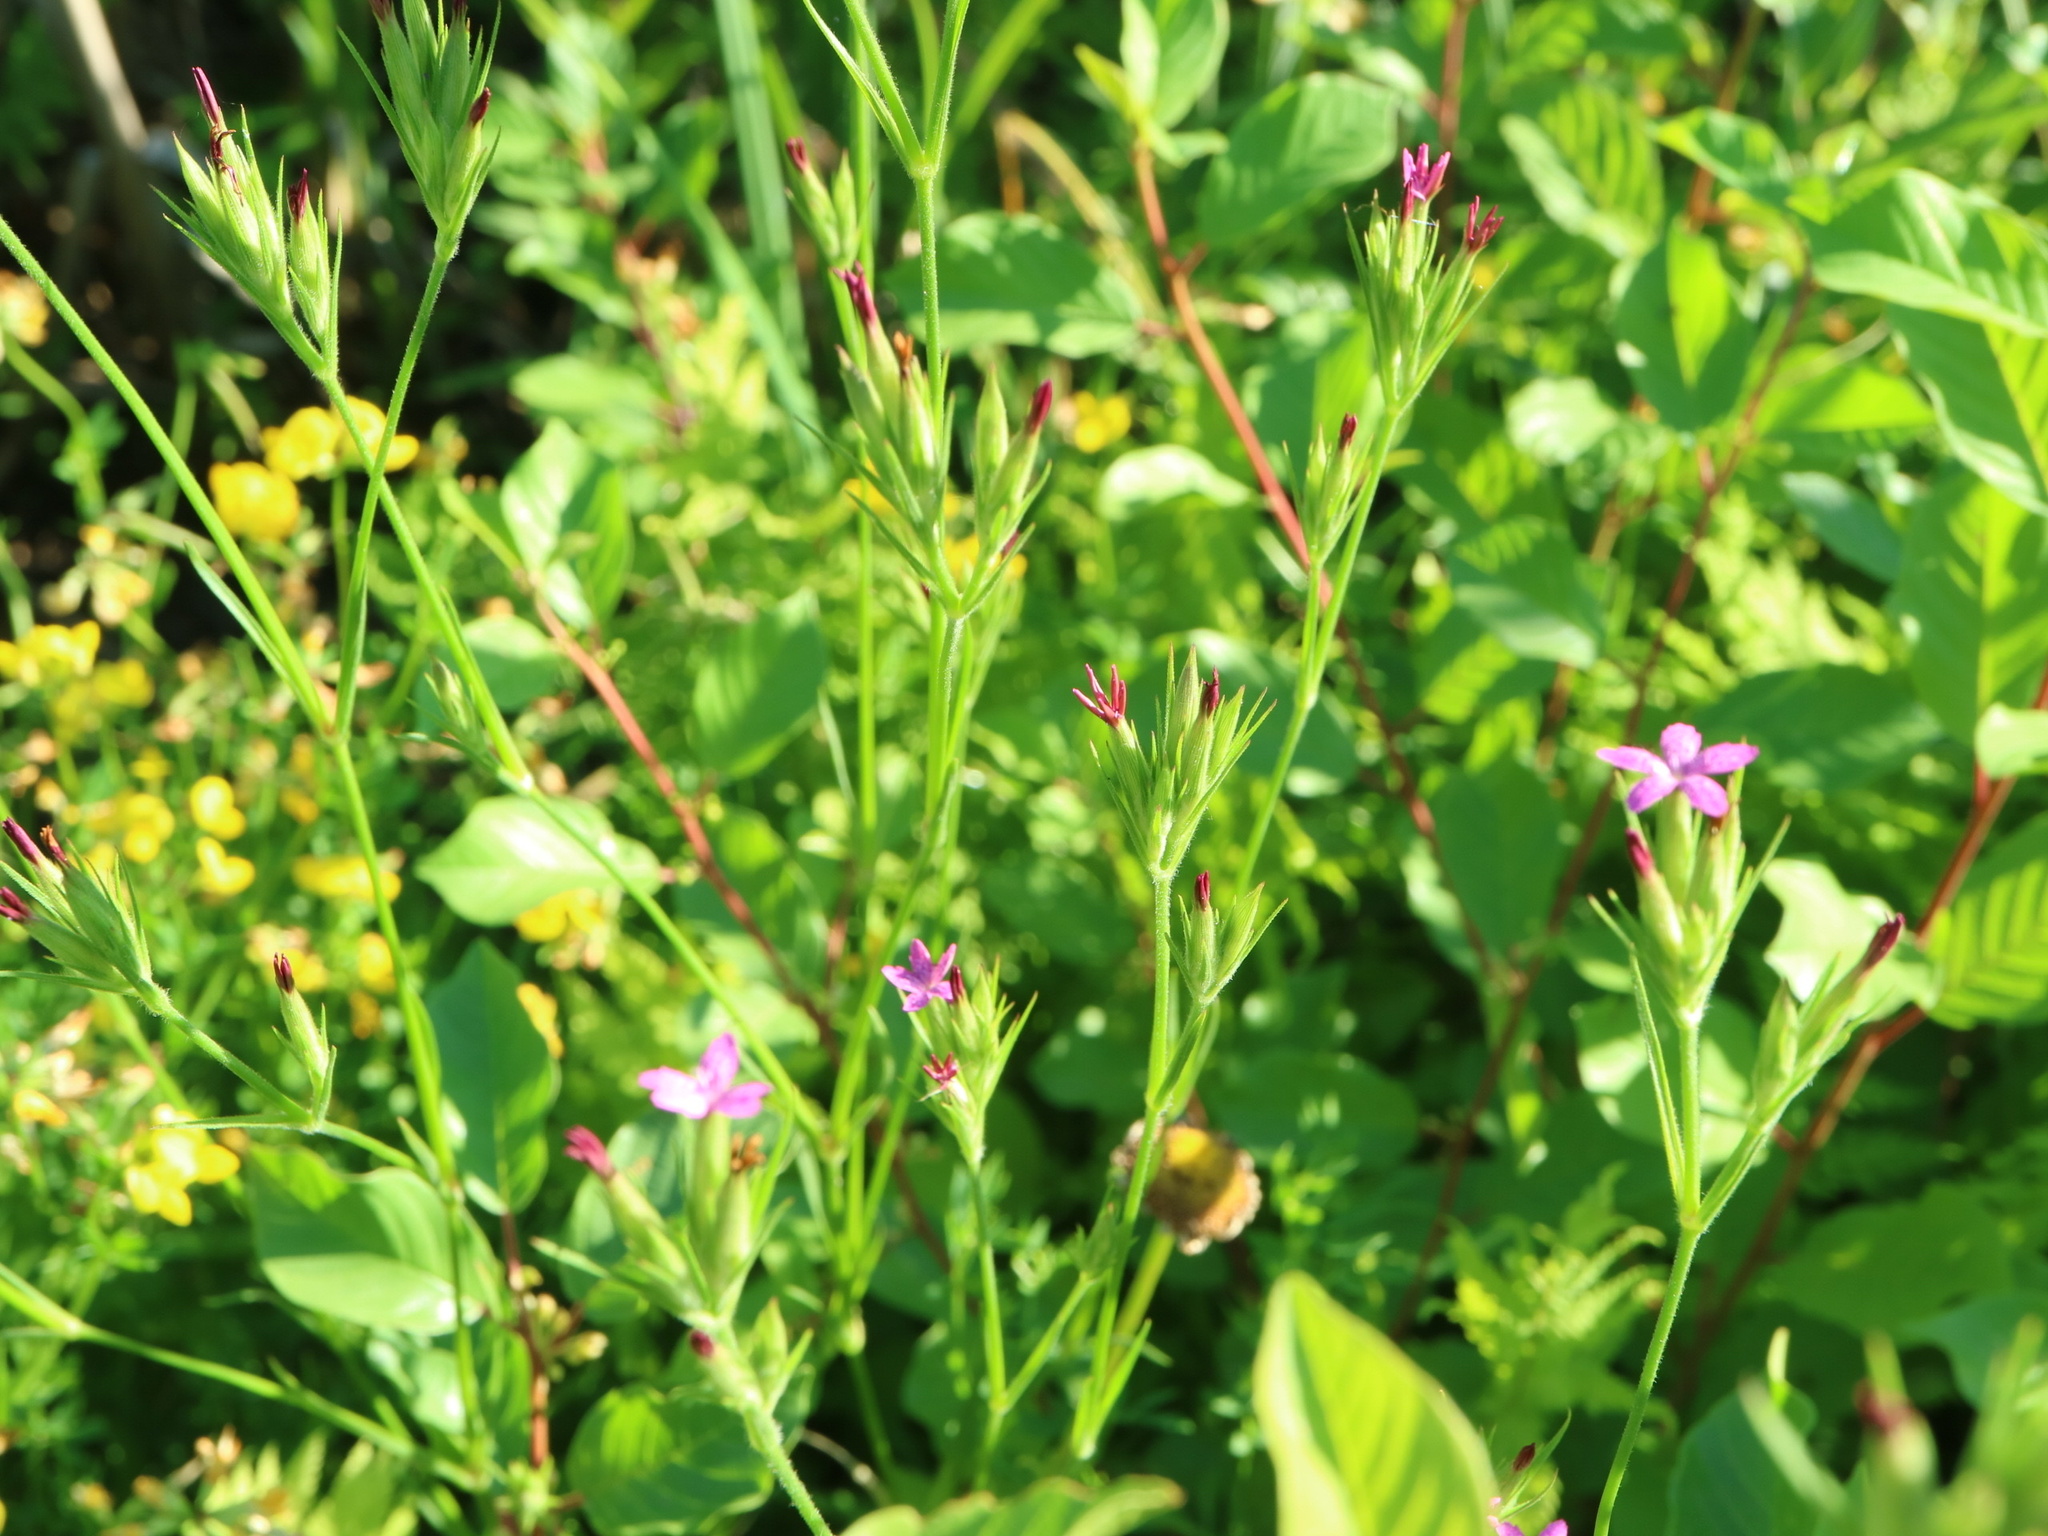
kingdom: Plantae
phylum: Tracheophyta
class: Magnoliopsida
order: Caryophyllales
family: Caryophyllaceae
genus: Dianthus
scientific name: Dianthus armeria
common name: Deptford pink
